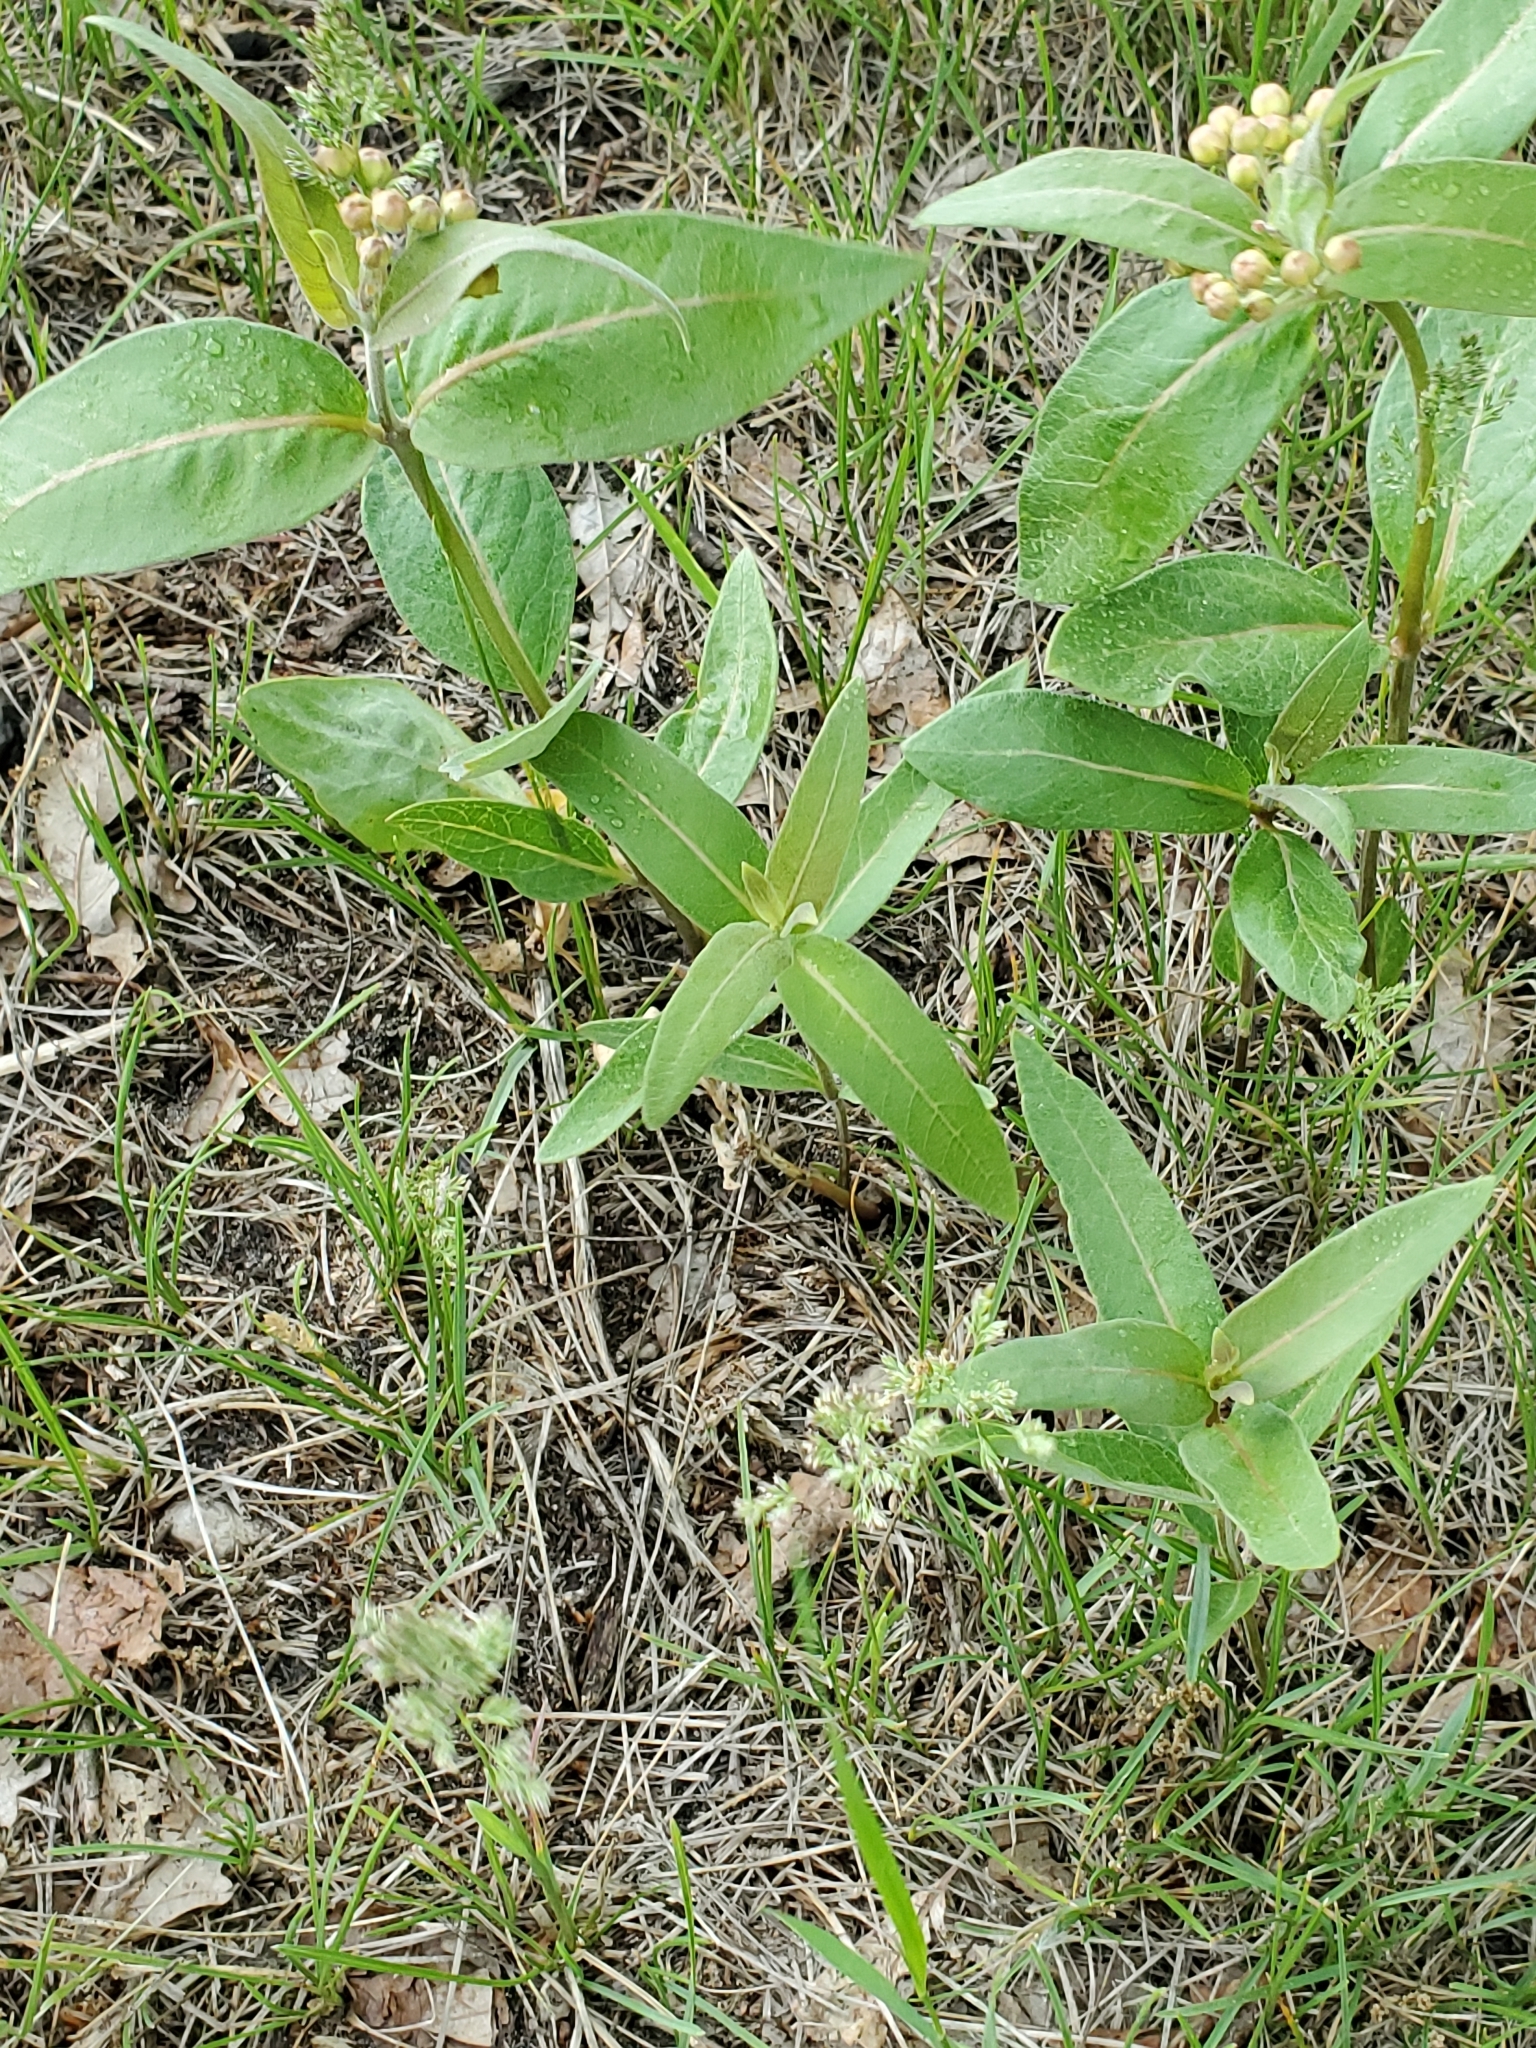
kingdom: Plantae
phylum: Tracheophyta
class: Magnoliopsida
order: Gentianales
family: Apocynaceae
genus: Asclepias
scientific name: Asclepias ovalifolia
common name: Dwarf milkweed
